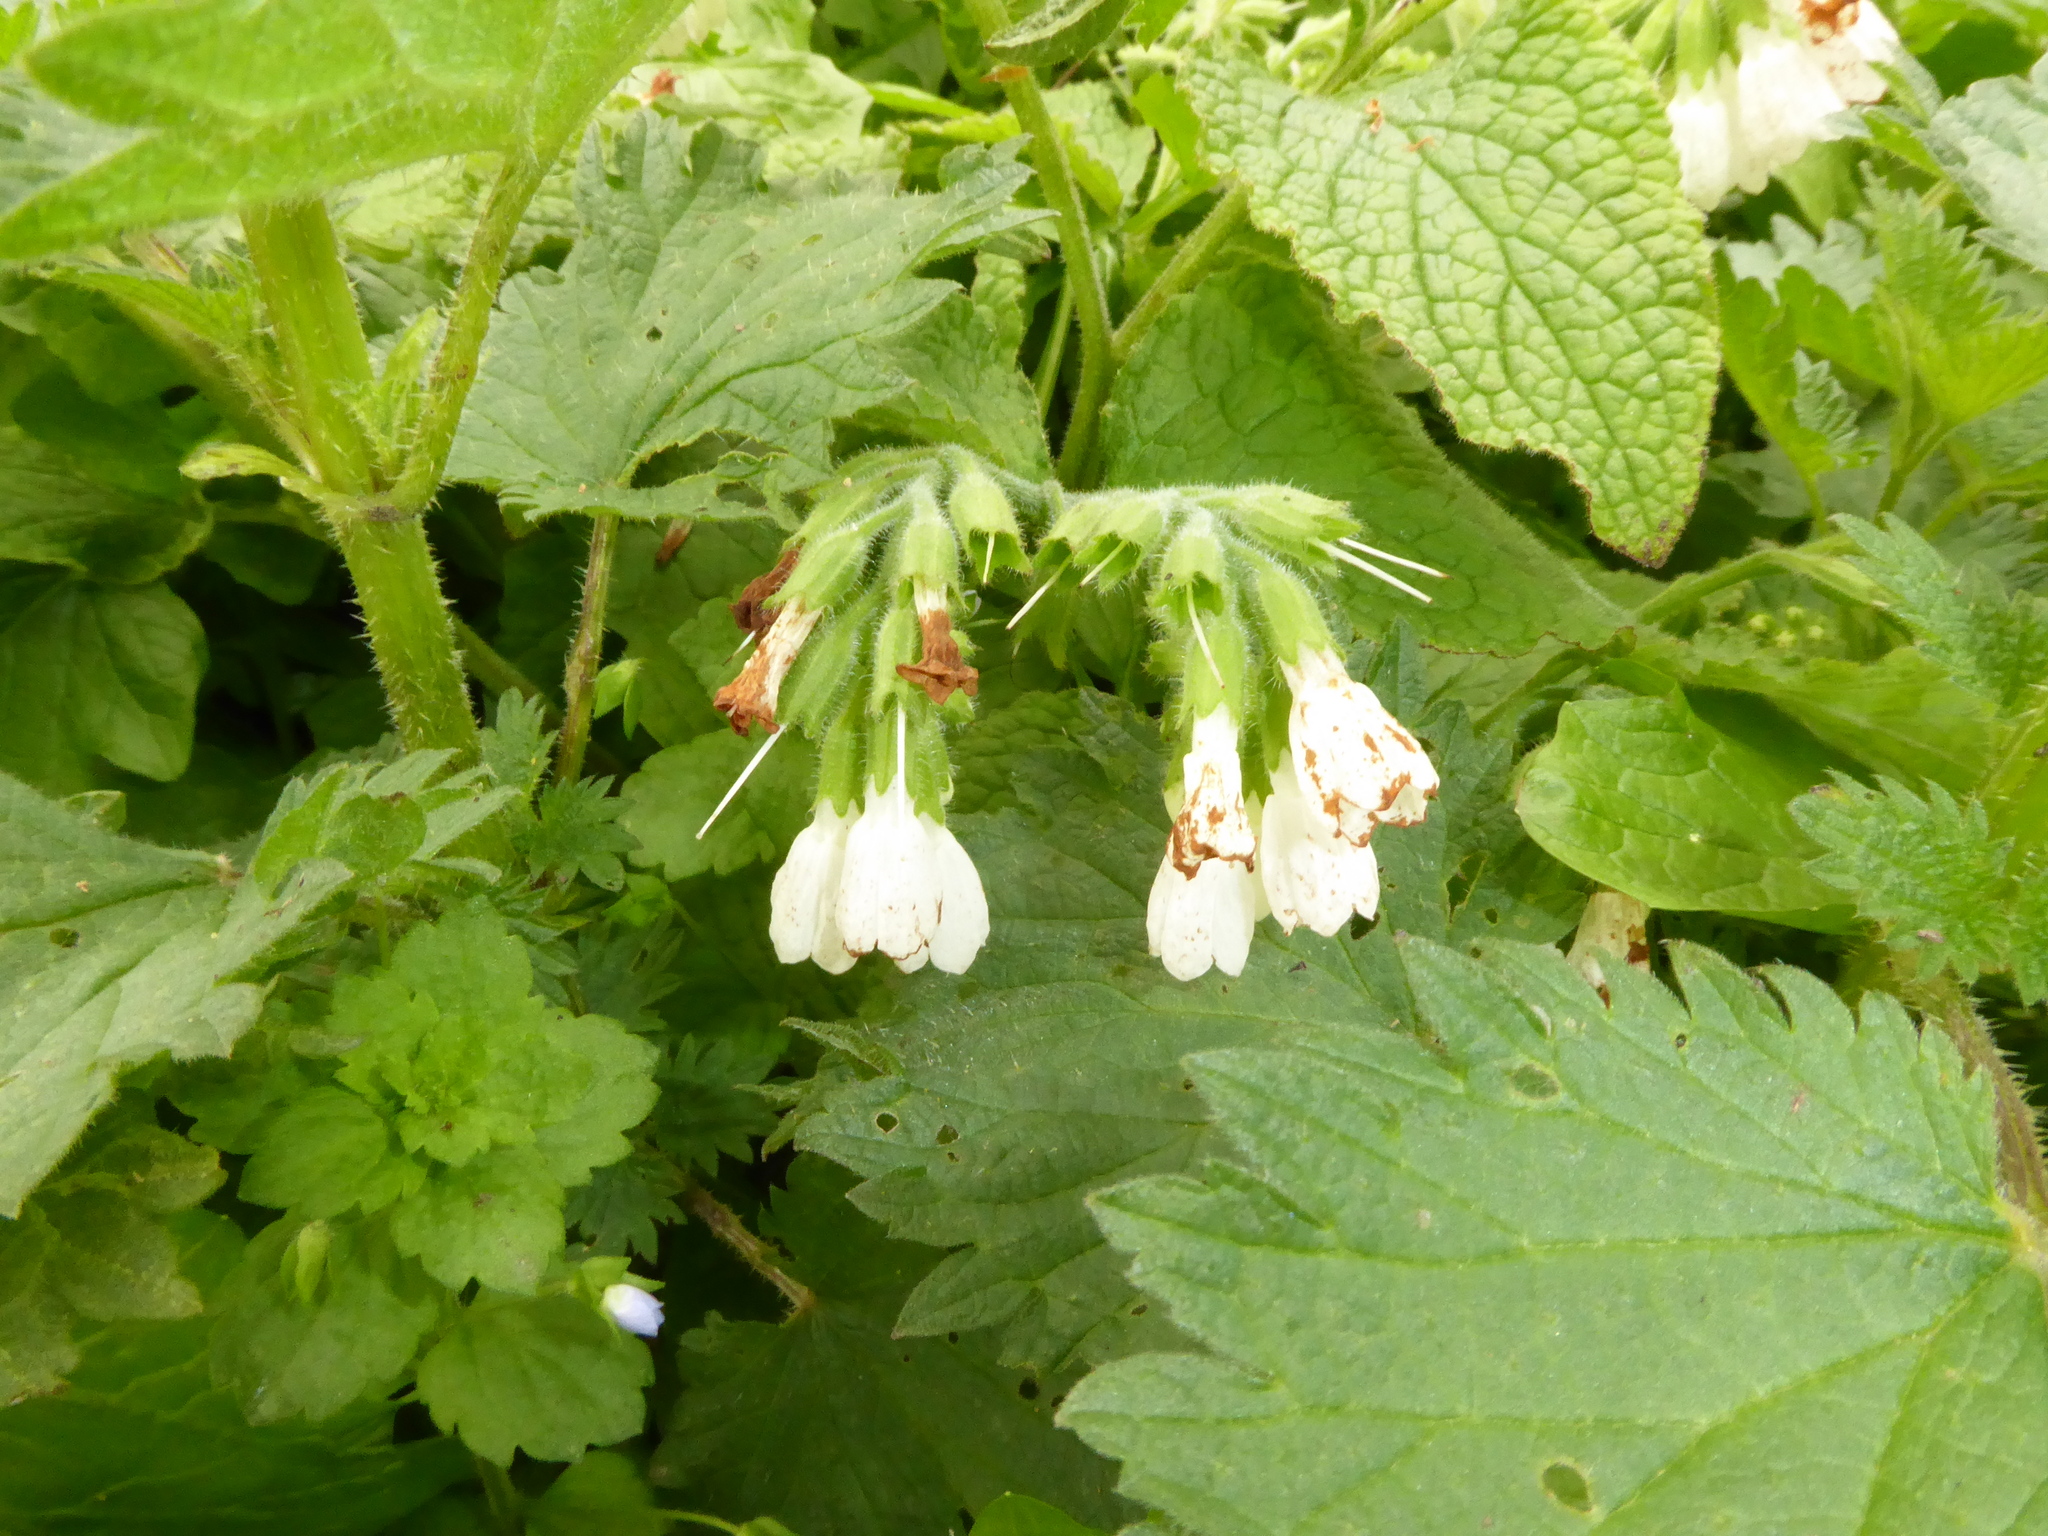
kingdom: Plantae
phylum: Tracheophyta
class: Magnoliopsida
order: Boraginales
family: Boraginaceae
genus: Symphytum
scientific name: Symphytum orientale
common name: White comfrey
